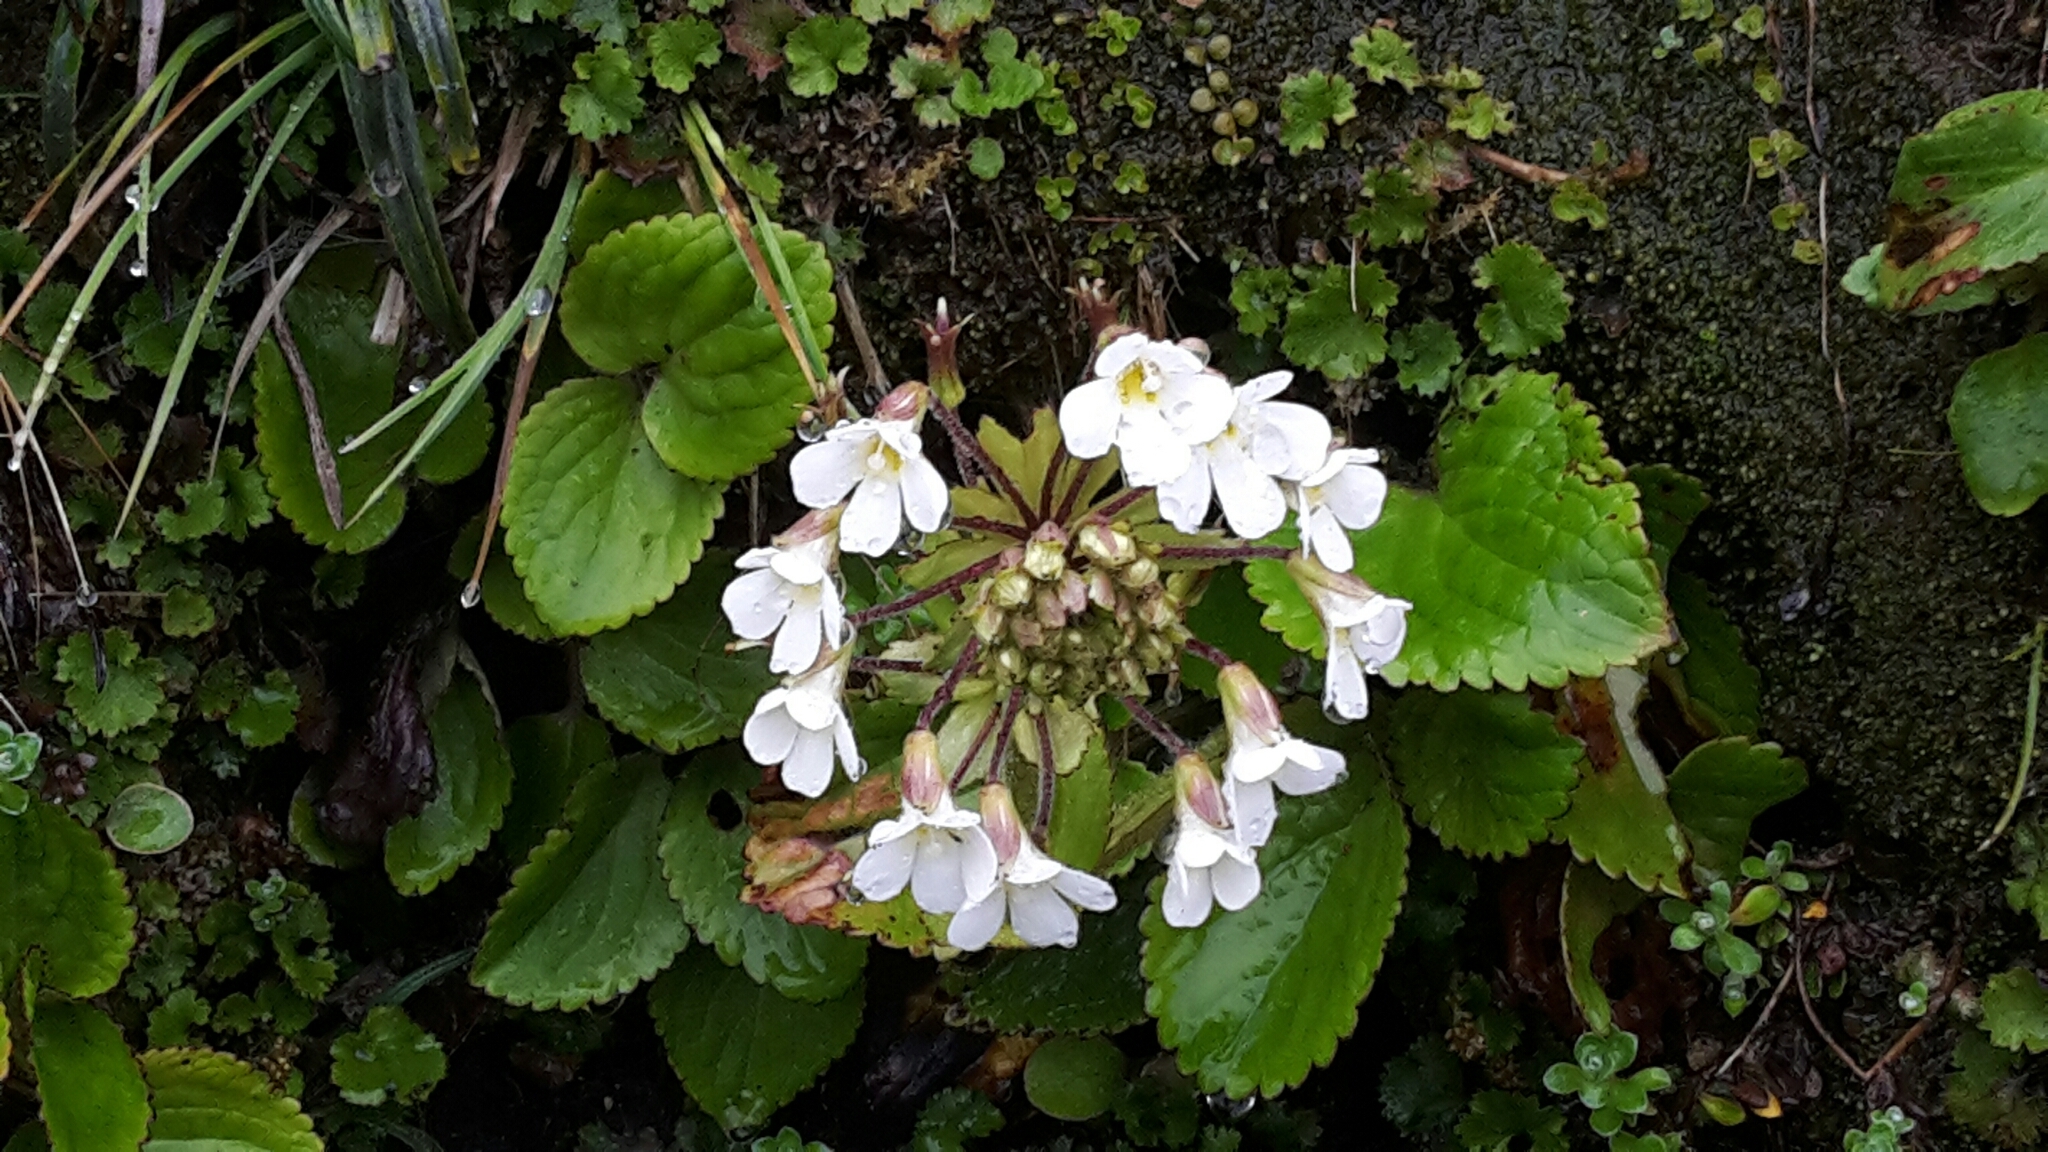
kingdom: Plantae
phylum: Tracheophyta
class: Magnoliopsida
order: Lamiales
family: Plantaginaceae
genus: Ourisia
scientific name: Ourisia macrophylla
